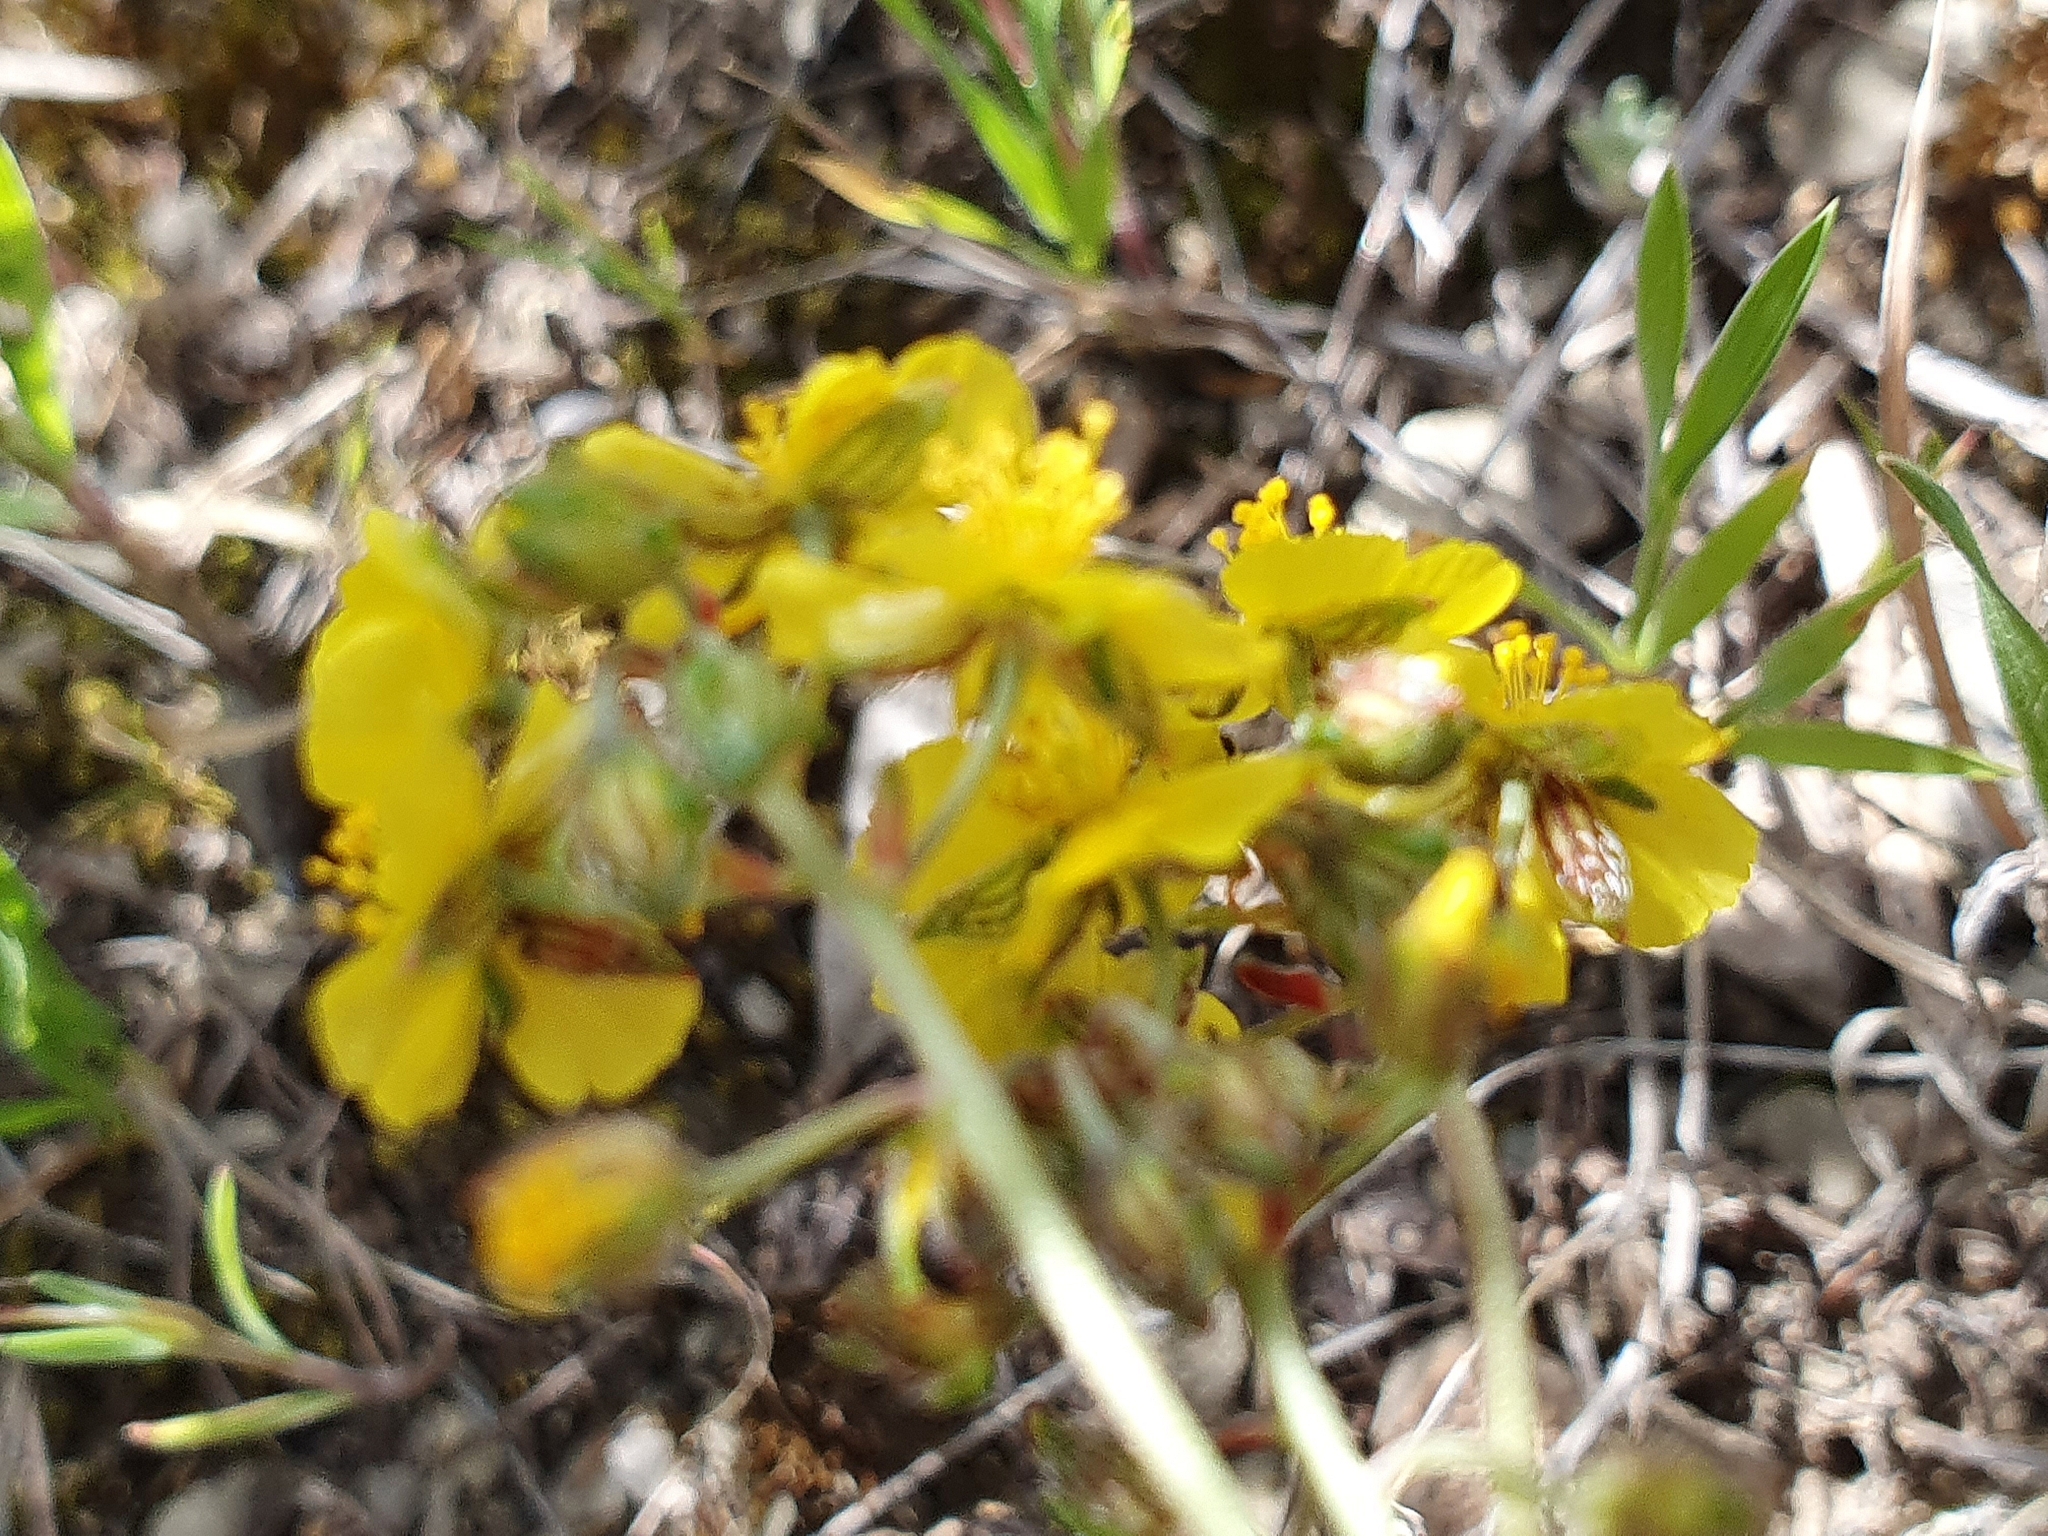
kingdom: Plantae
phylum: Tracheophyta
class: Magnoliopsida
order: Malvales
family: Cistaceae
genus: Helianthemum
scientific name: Helianthemum cinereum
